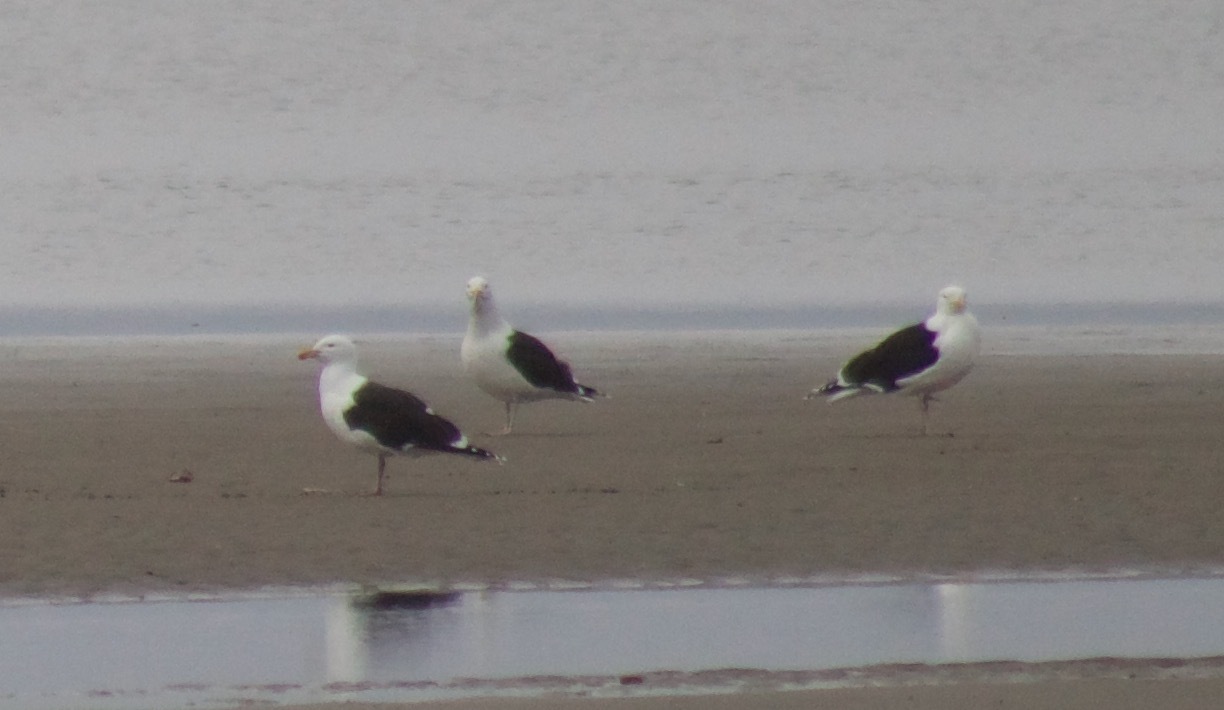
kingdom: Animalia
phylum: Chordata
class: Aves
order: Charadriiformes
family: Laridae
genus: Larus
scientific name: Larus marinus
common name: Great black-backed gull
